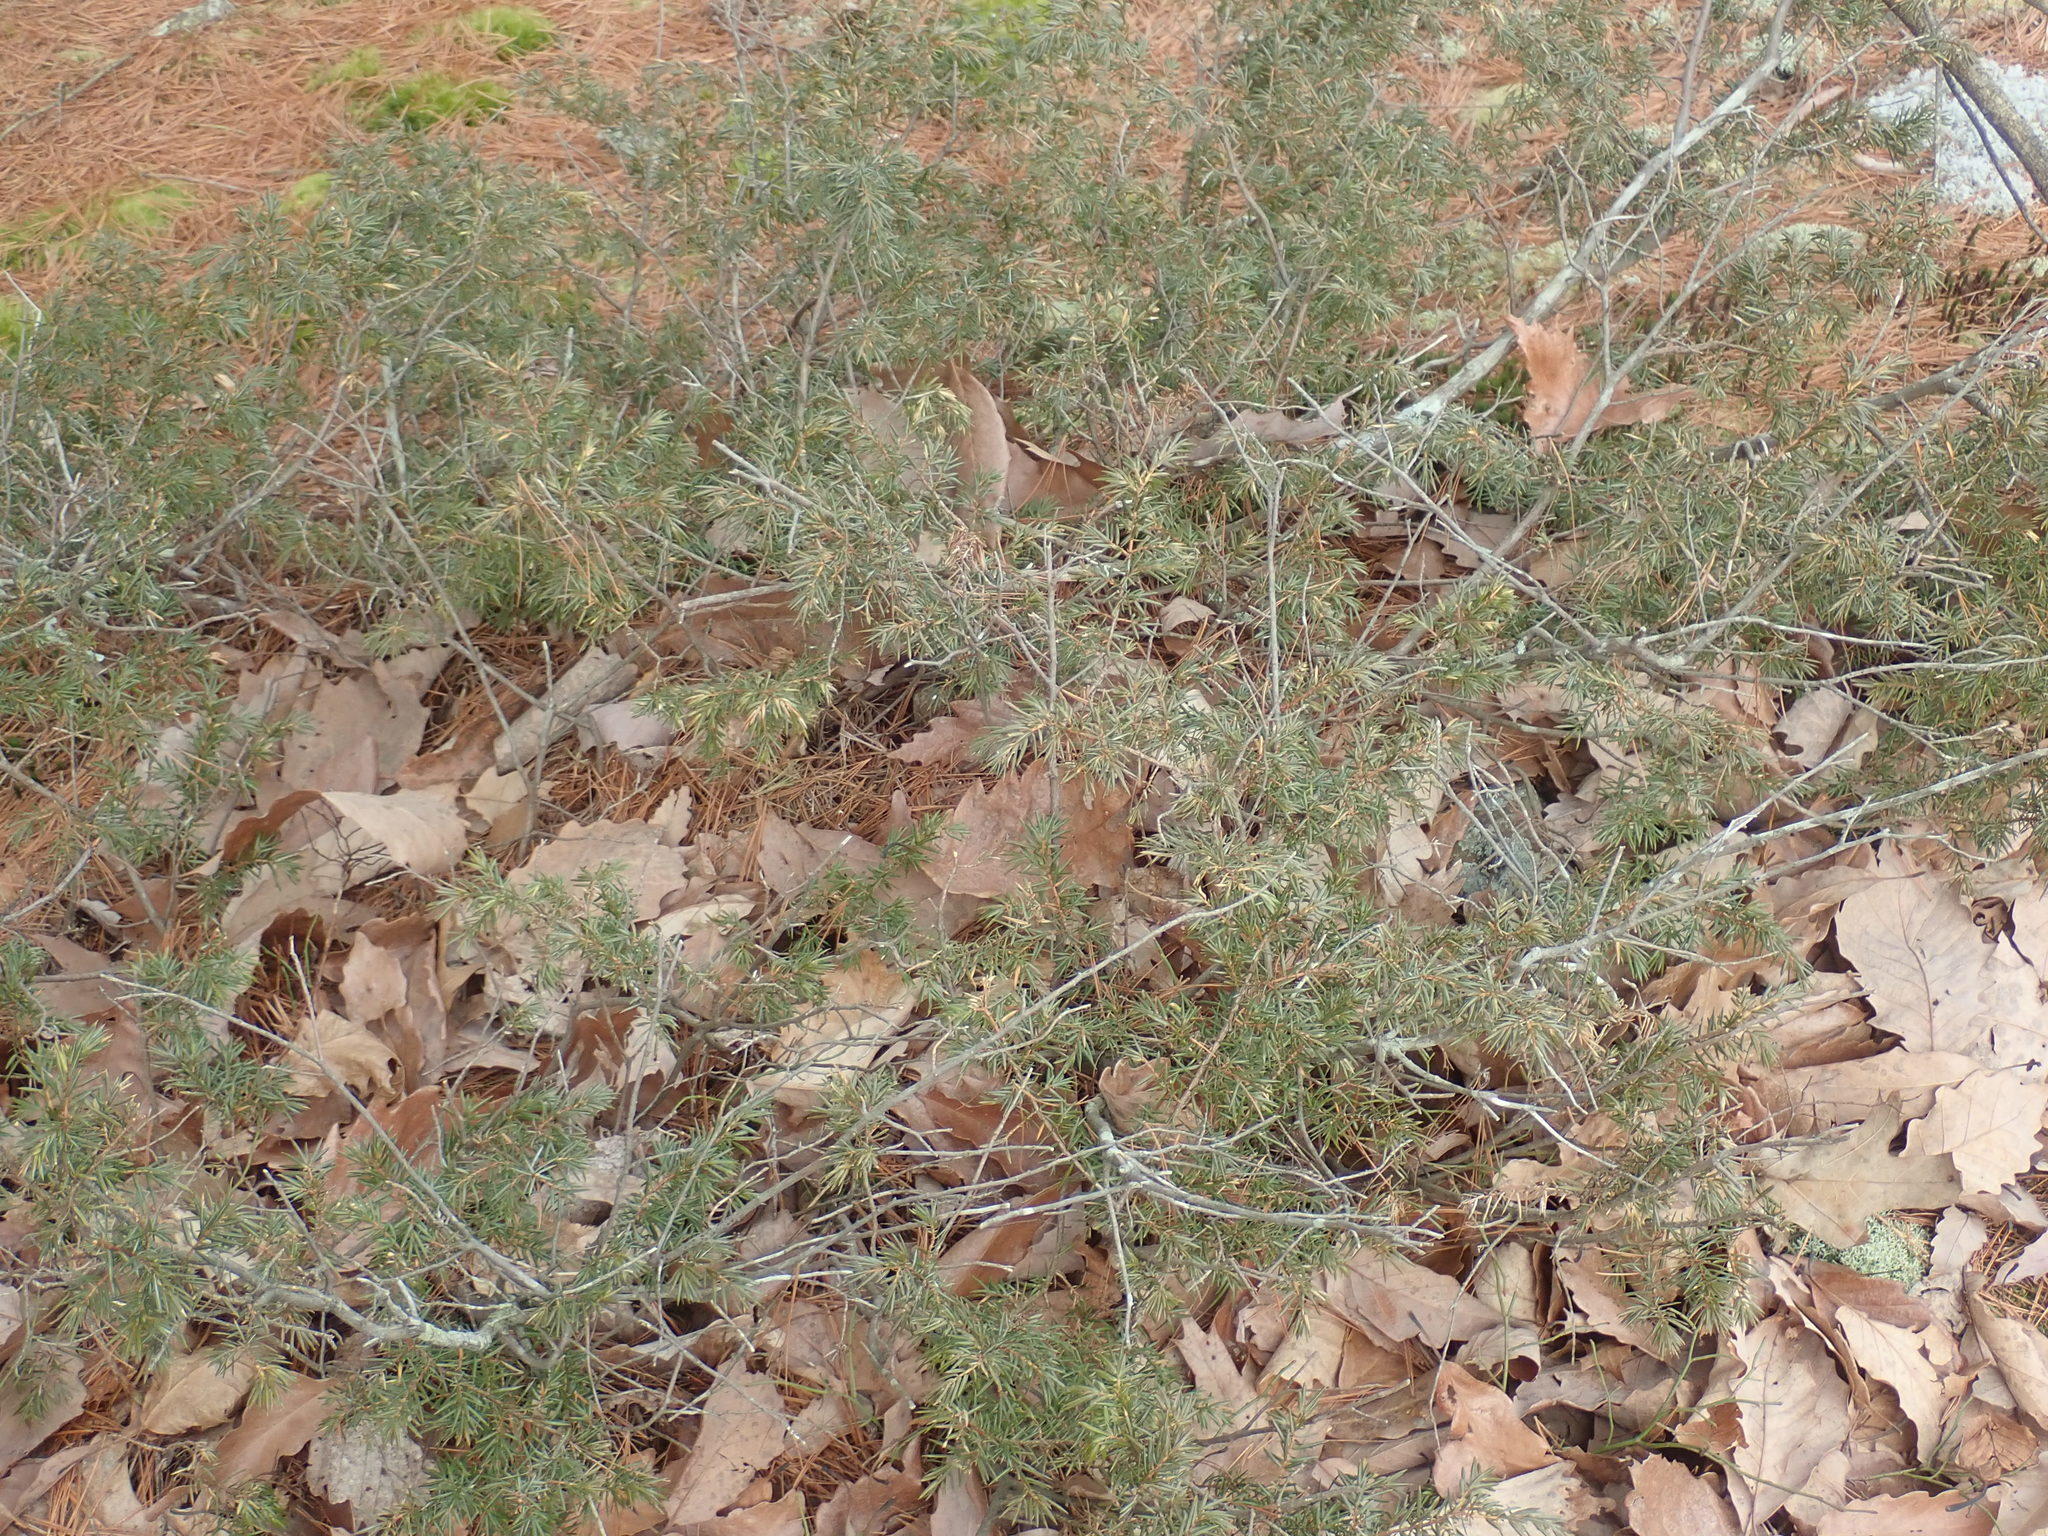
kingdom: Plantae
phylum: Tracheophyta
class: Pinopsida
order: Pinales
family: Cupressaceae
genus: Juniperus
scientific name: Juniperus communis
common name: Common juniper
